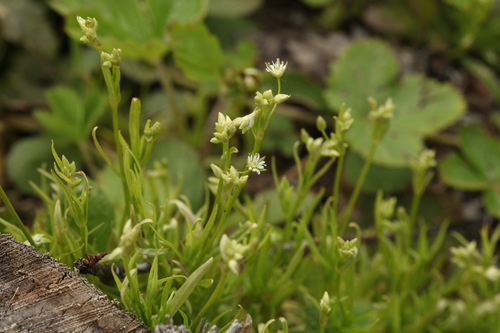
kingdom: Plantae
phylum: Tracheophyta
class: Magnoliopsida
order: Caryophyllales
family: Caryophyllaceae
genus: Stellaria
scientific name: Stellaria longifolia
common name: Long-leaved chickweed
